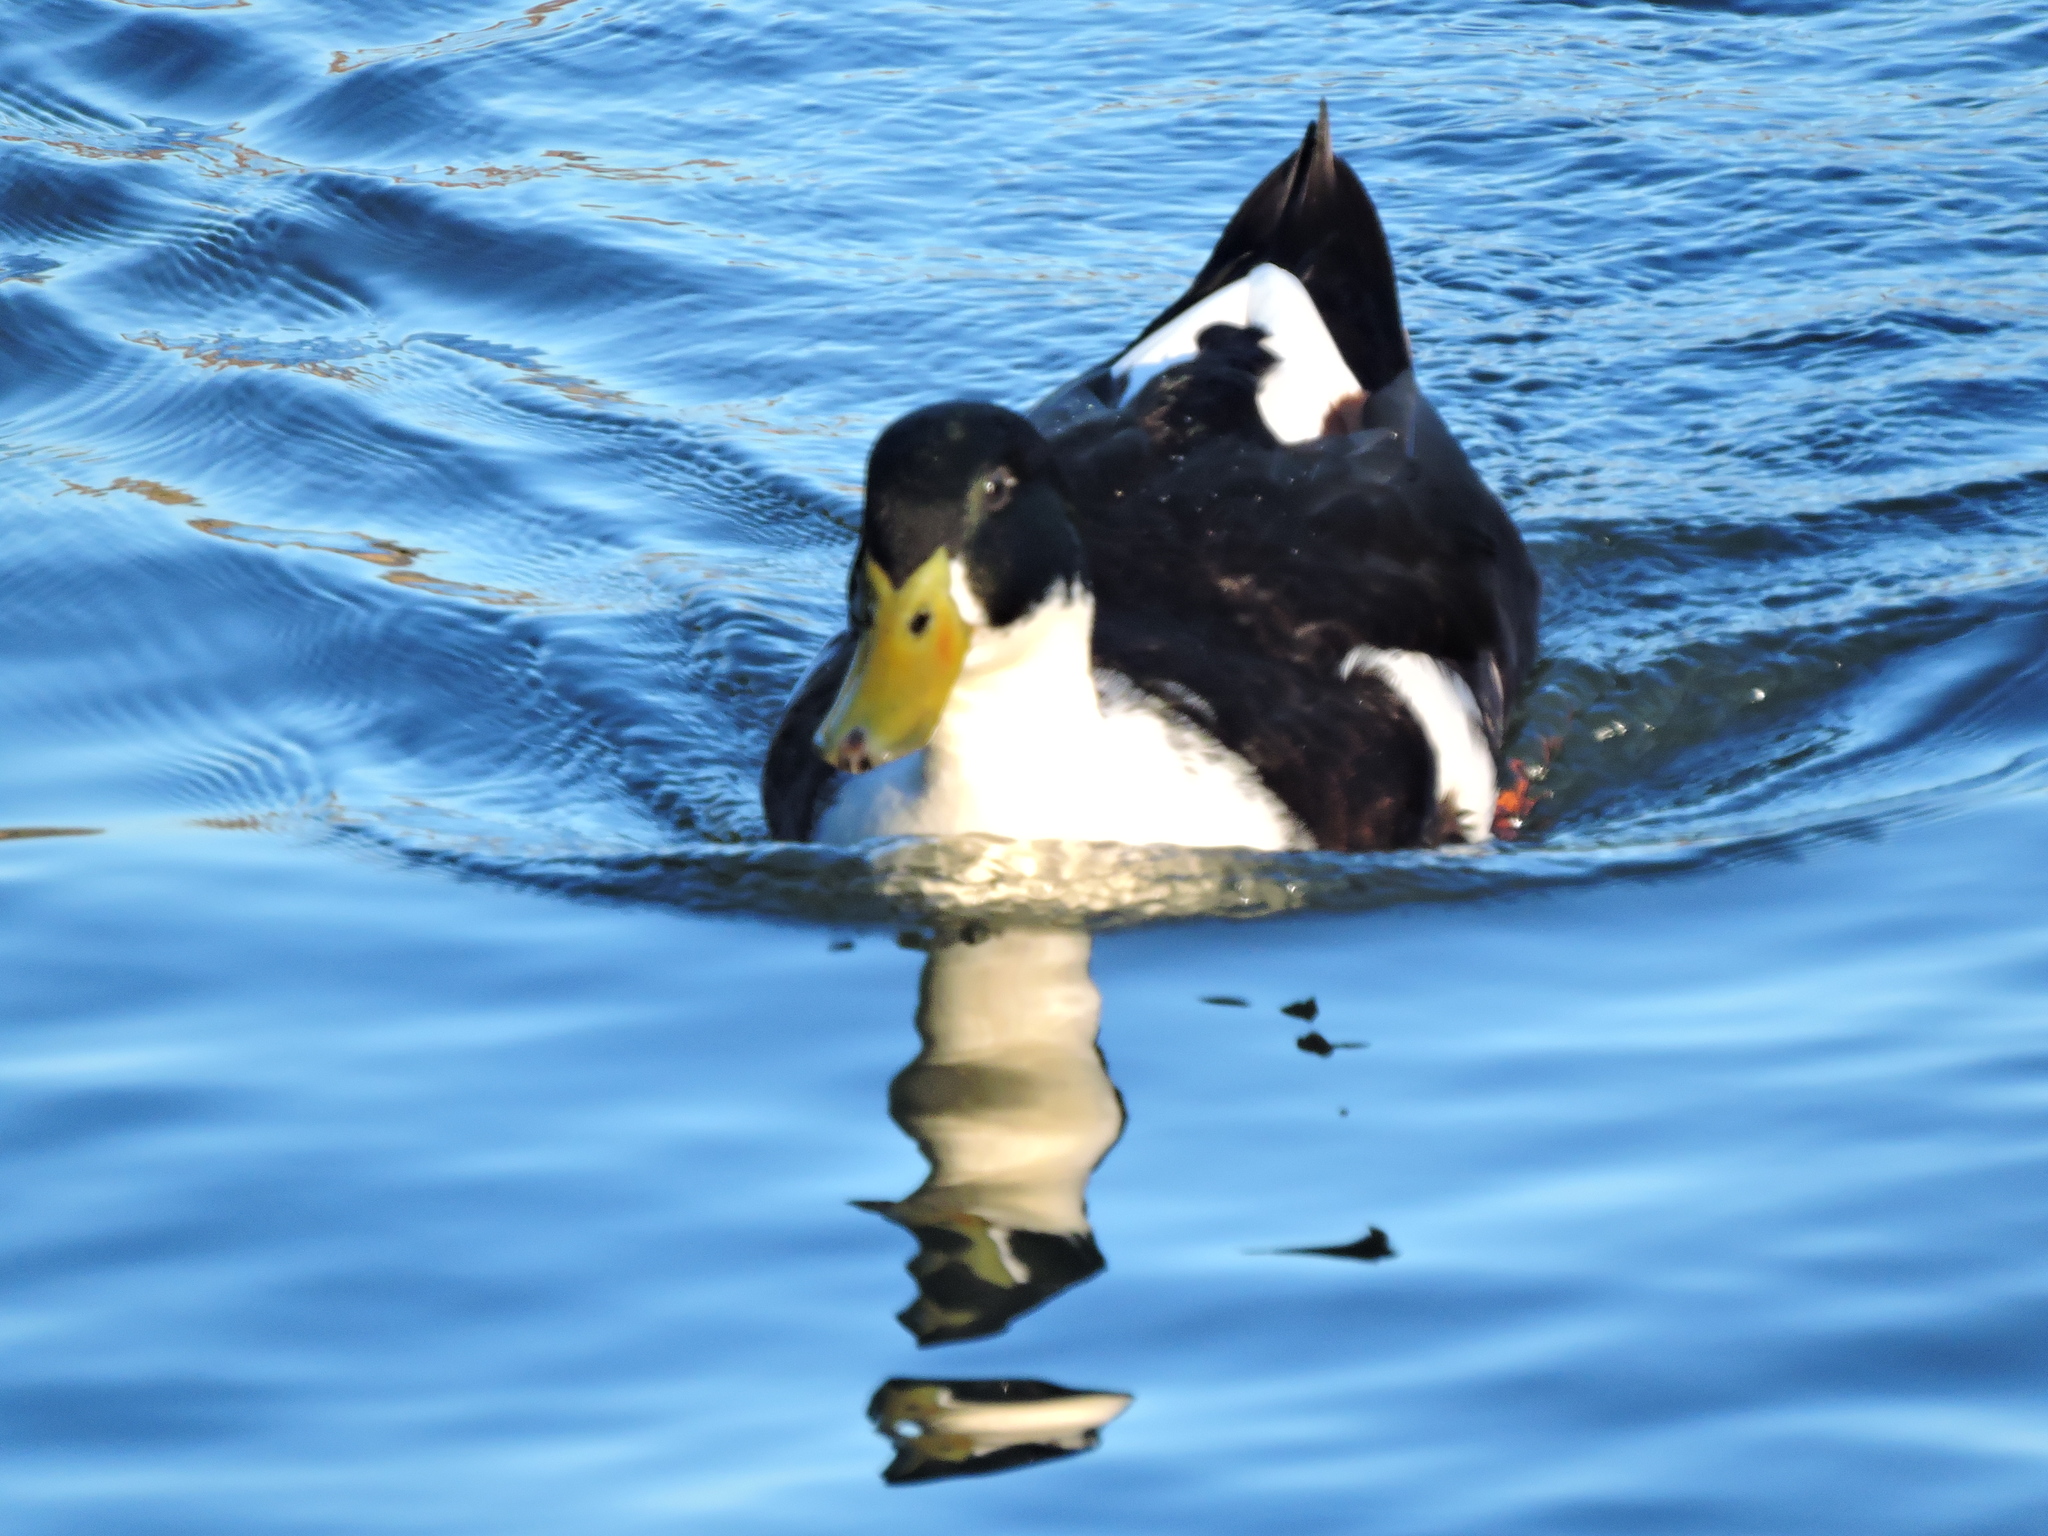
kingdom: Animalia
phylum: Chordata
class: Aves
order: Anseriformes
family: Anatidae
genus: Anas
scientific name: Anas platyrhynchos
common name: Mallard
